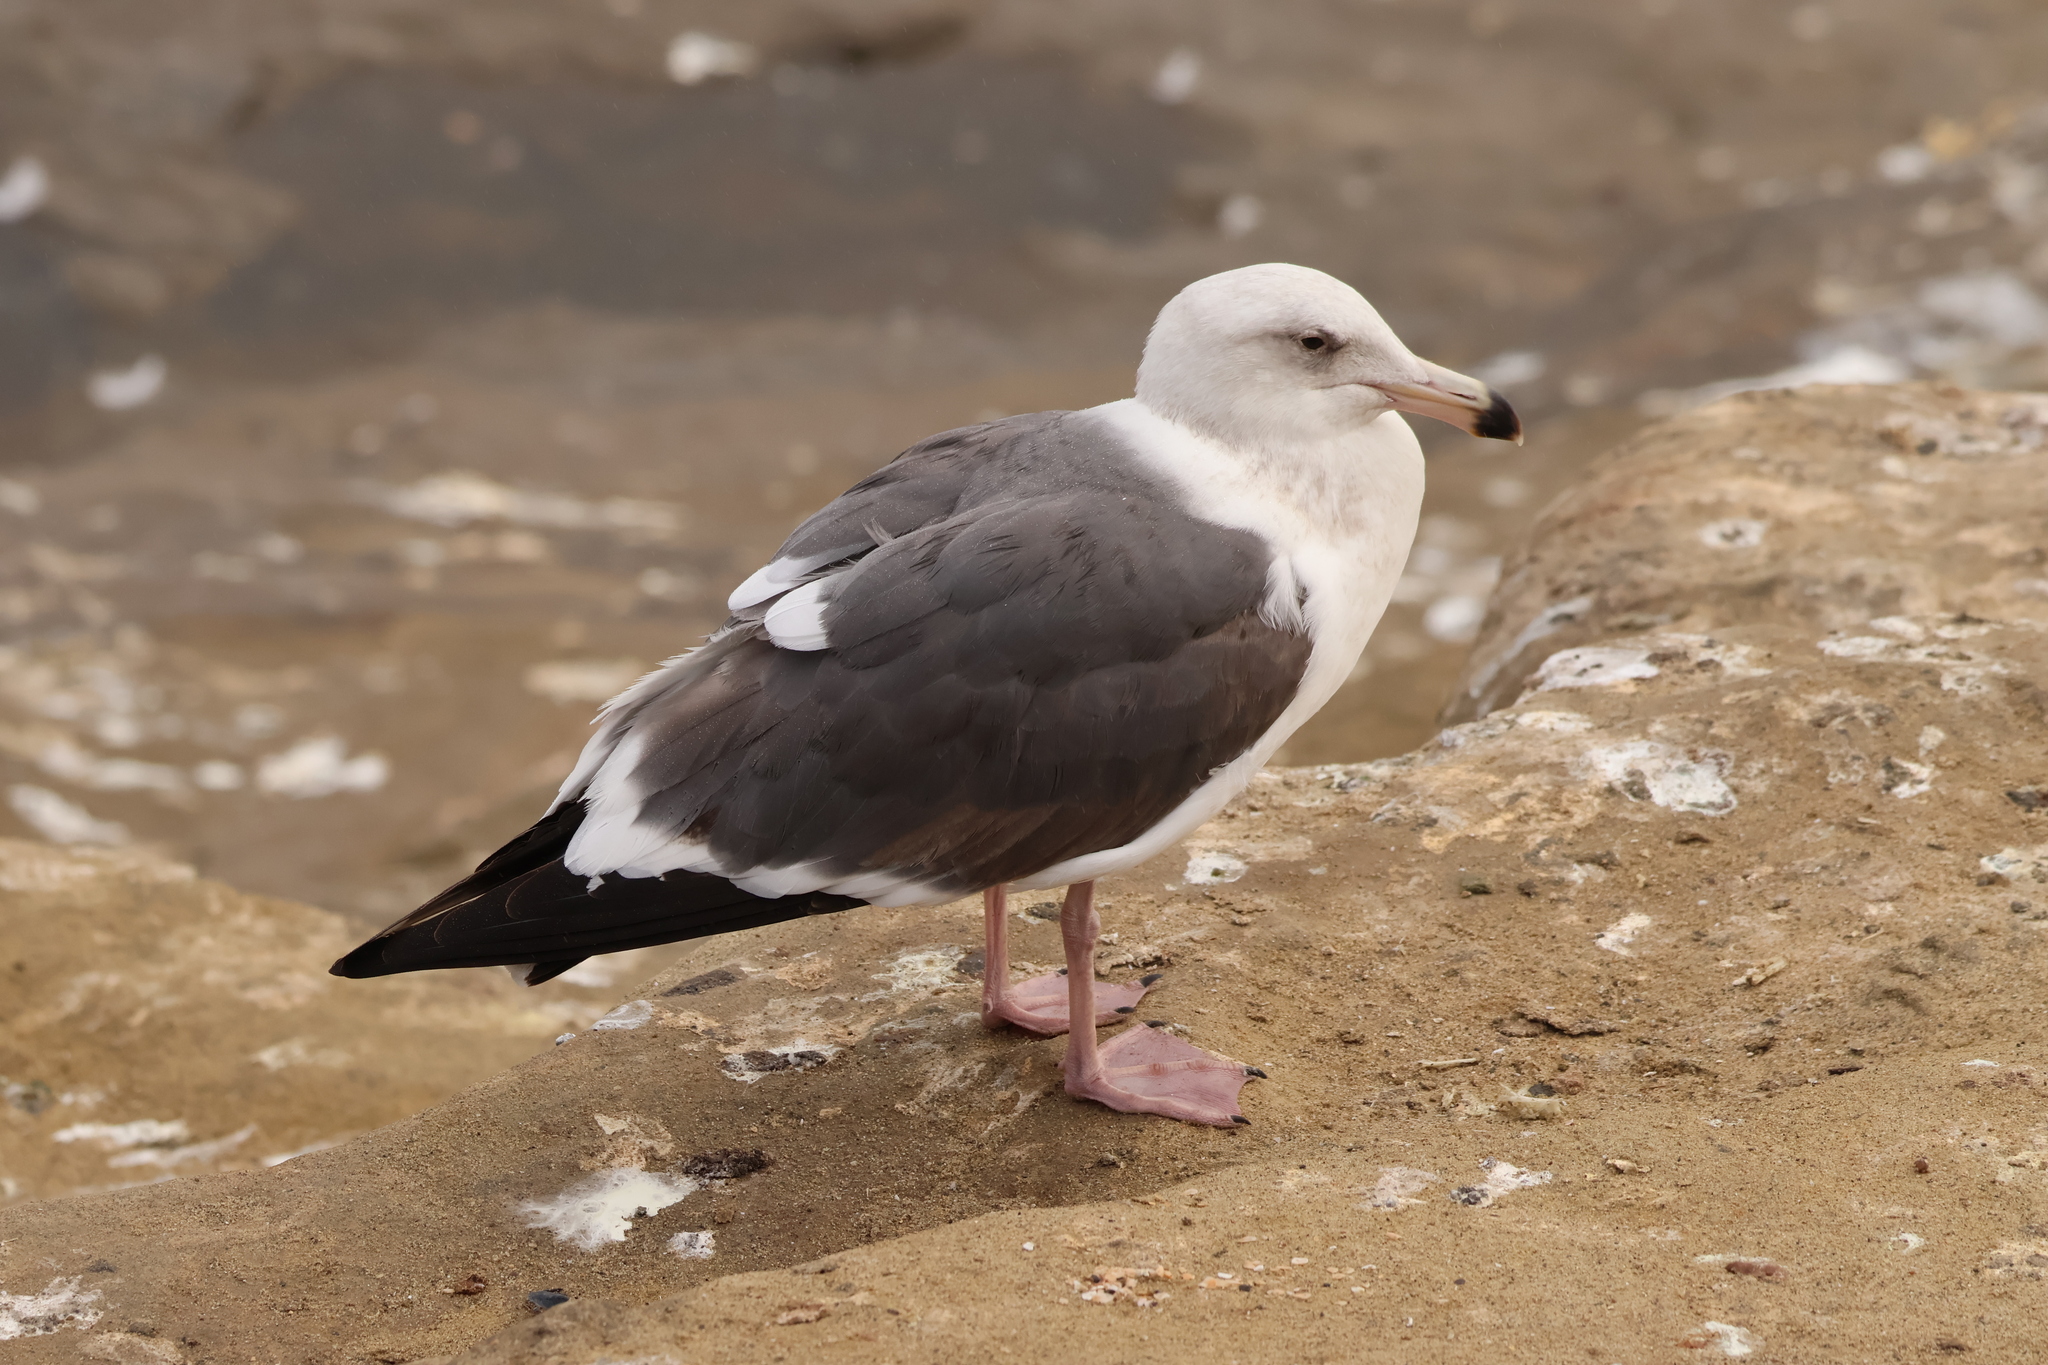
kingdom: Animalia
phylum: Chordata
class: Aves
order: Charadriiformes
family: Laridae
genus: Larus
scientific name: Larus occidentalis
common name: Western gull
